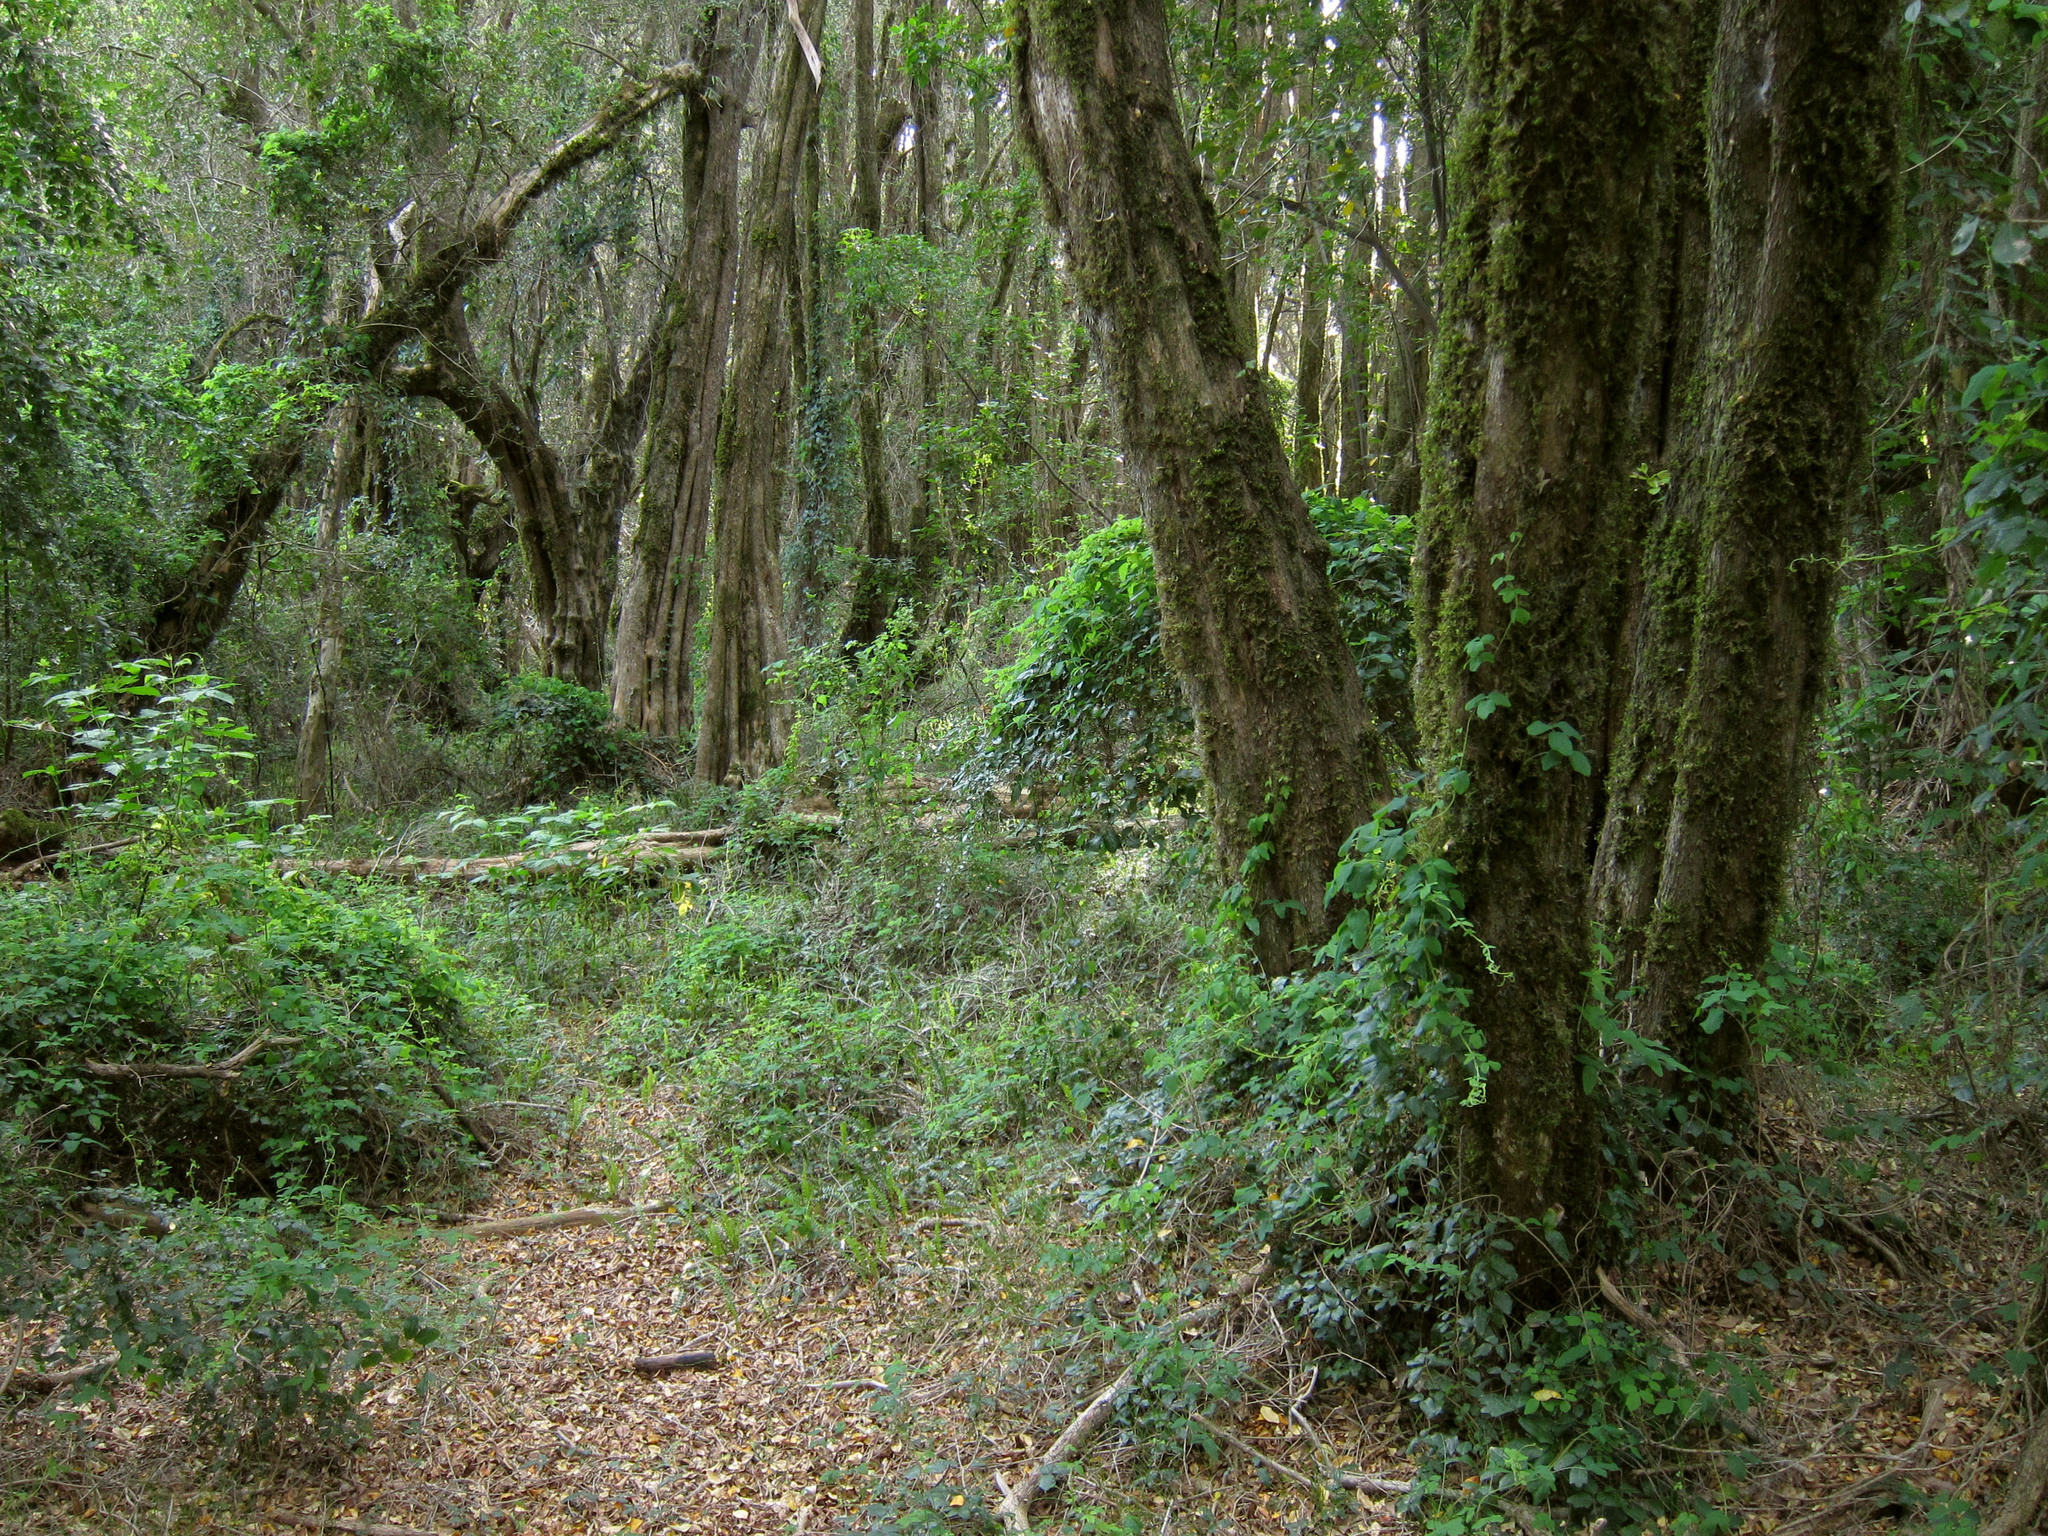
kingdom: Plantae
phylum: Tracheophyta
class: Magnoliopsida
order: Myrtales
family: Myrtaceae
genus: Myrceugenia
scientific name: Myrceugenia exsucca
